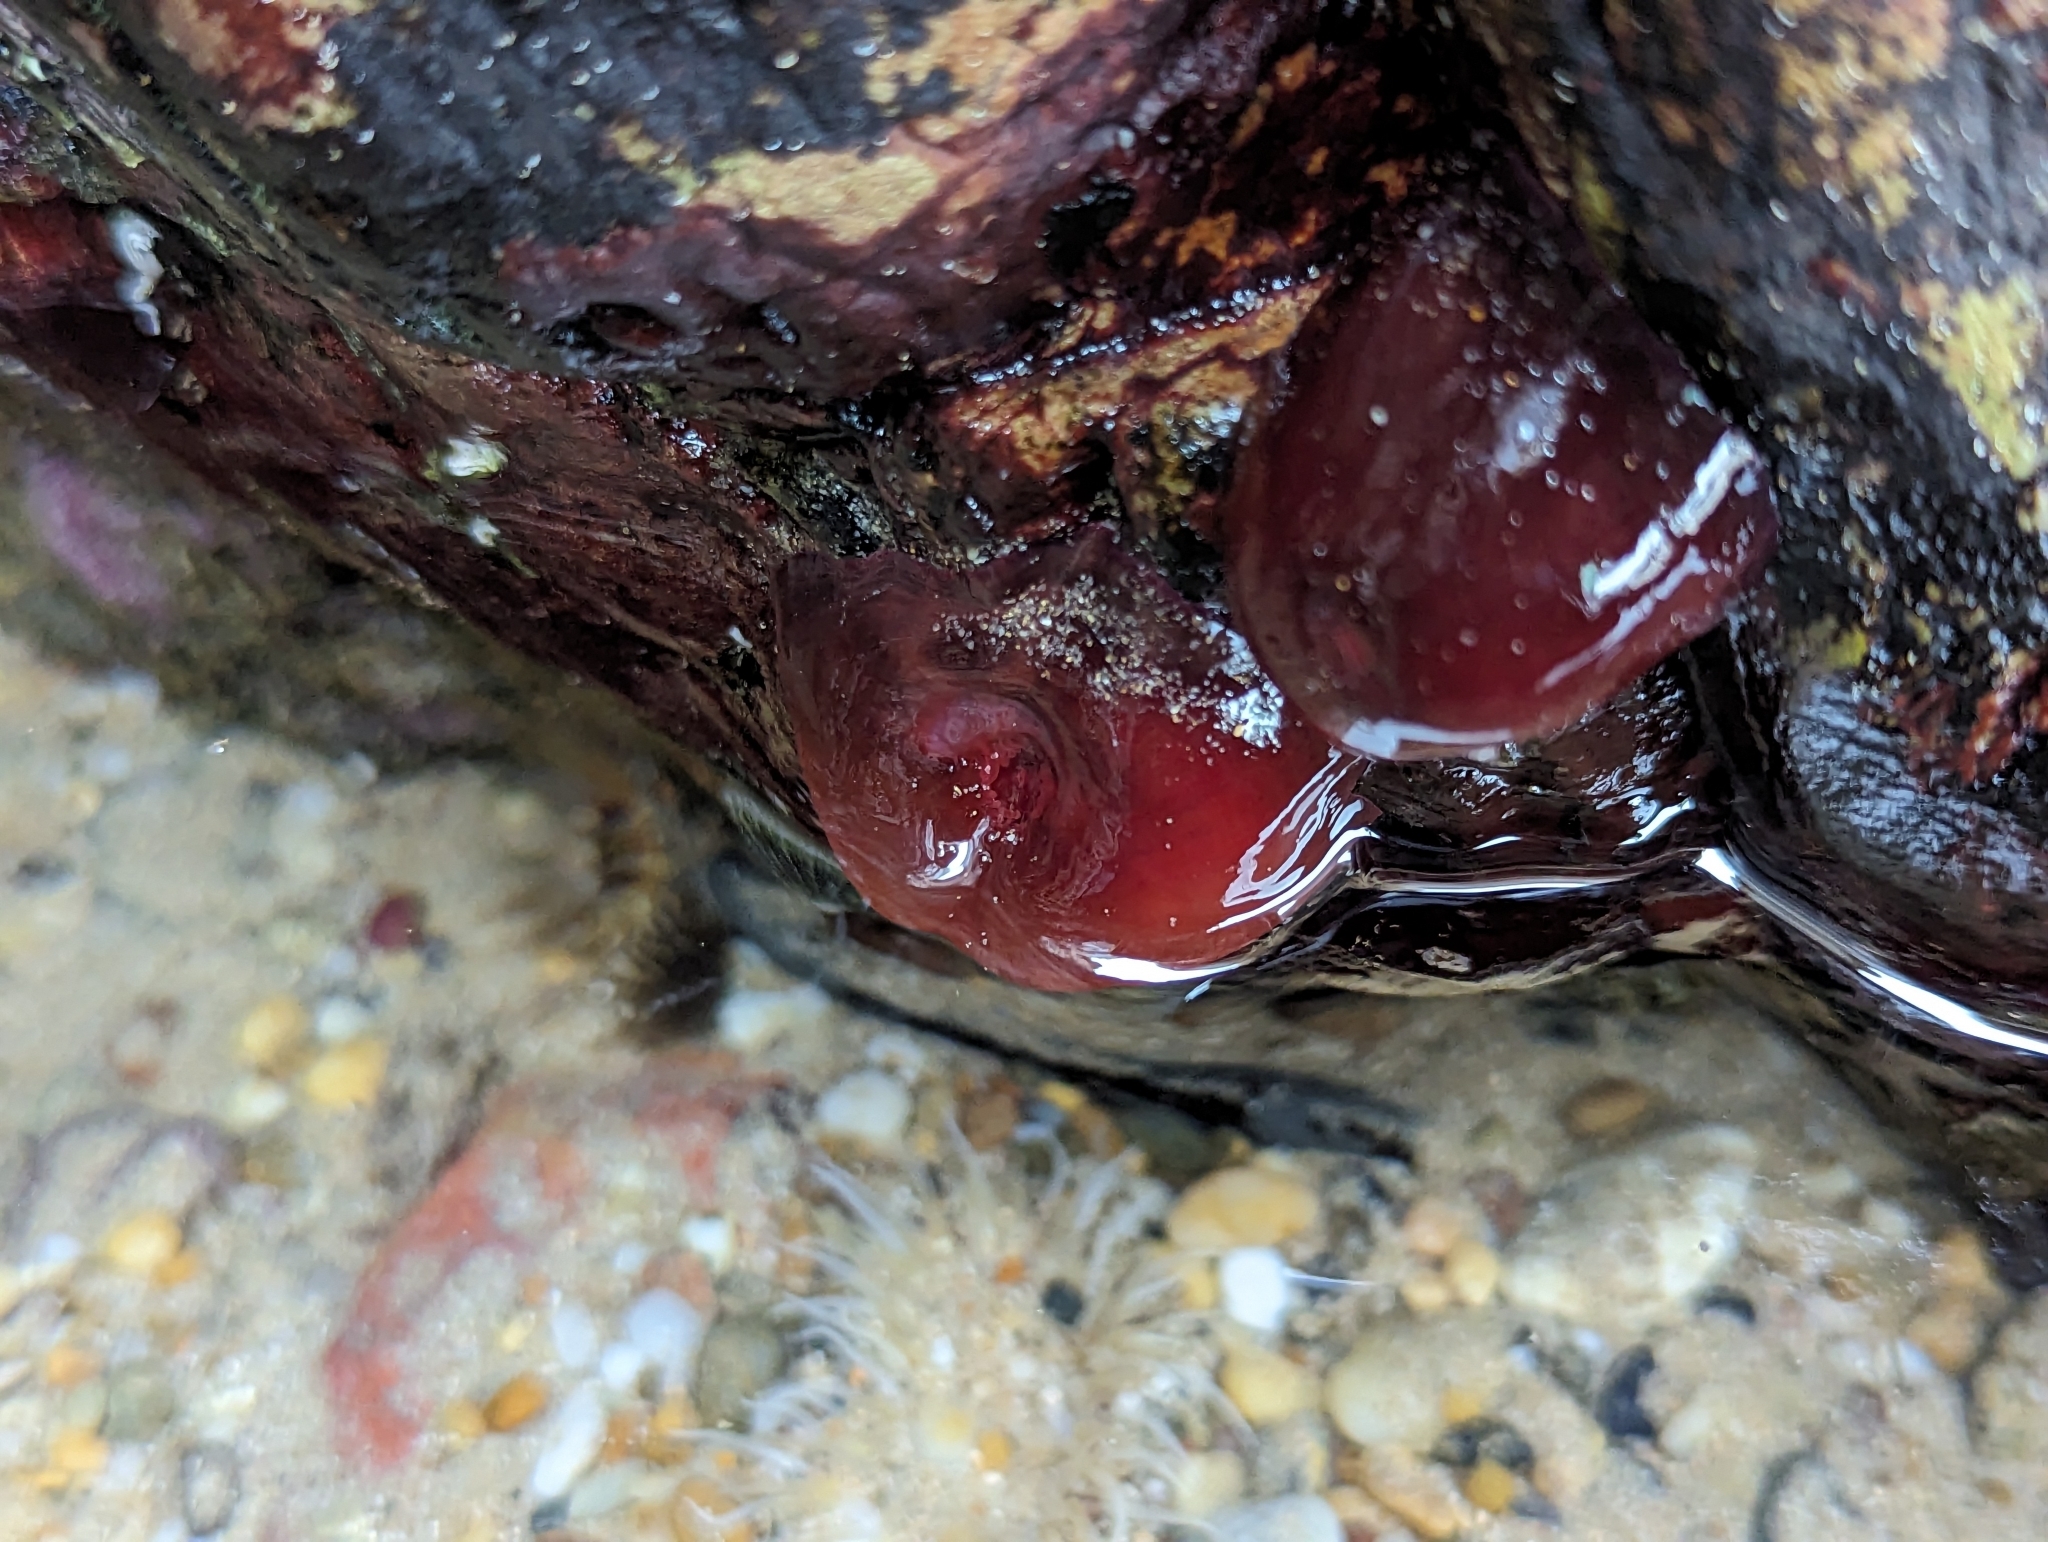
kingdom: Animalia
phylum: Cnidaria
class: Anthozoa
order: Actiniaria
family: Actiniidae
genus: Actinia
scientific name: Actinia tenebrosa
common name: Waratah anemone
